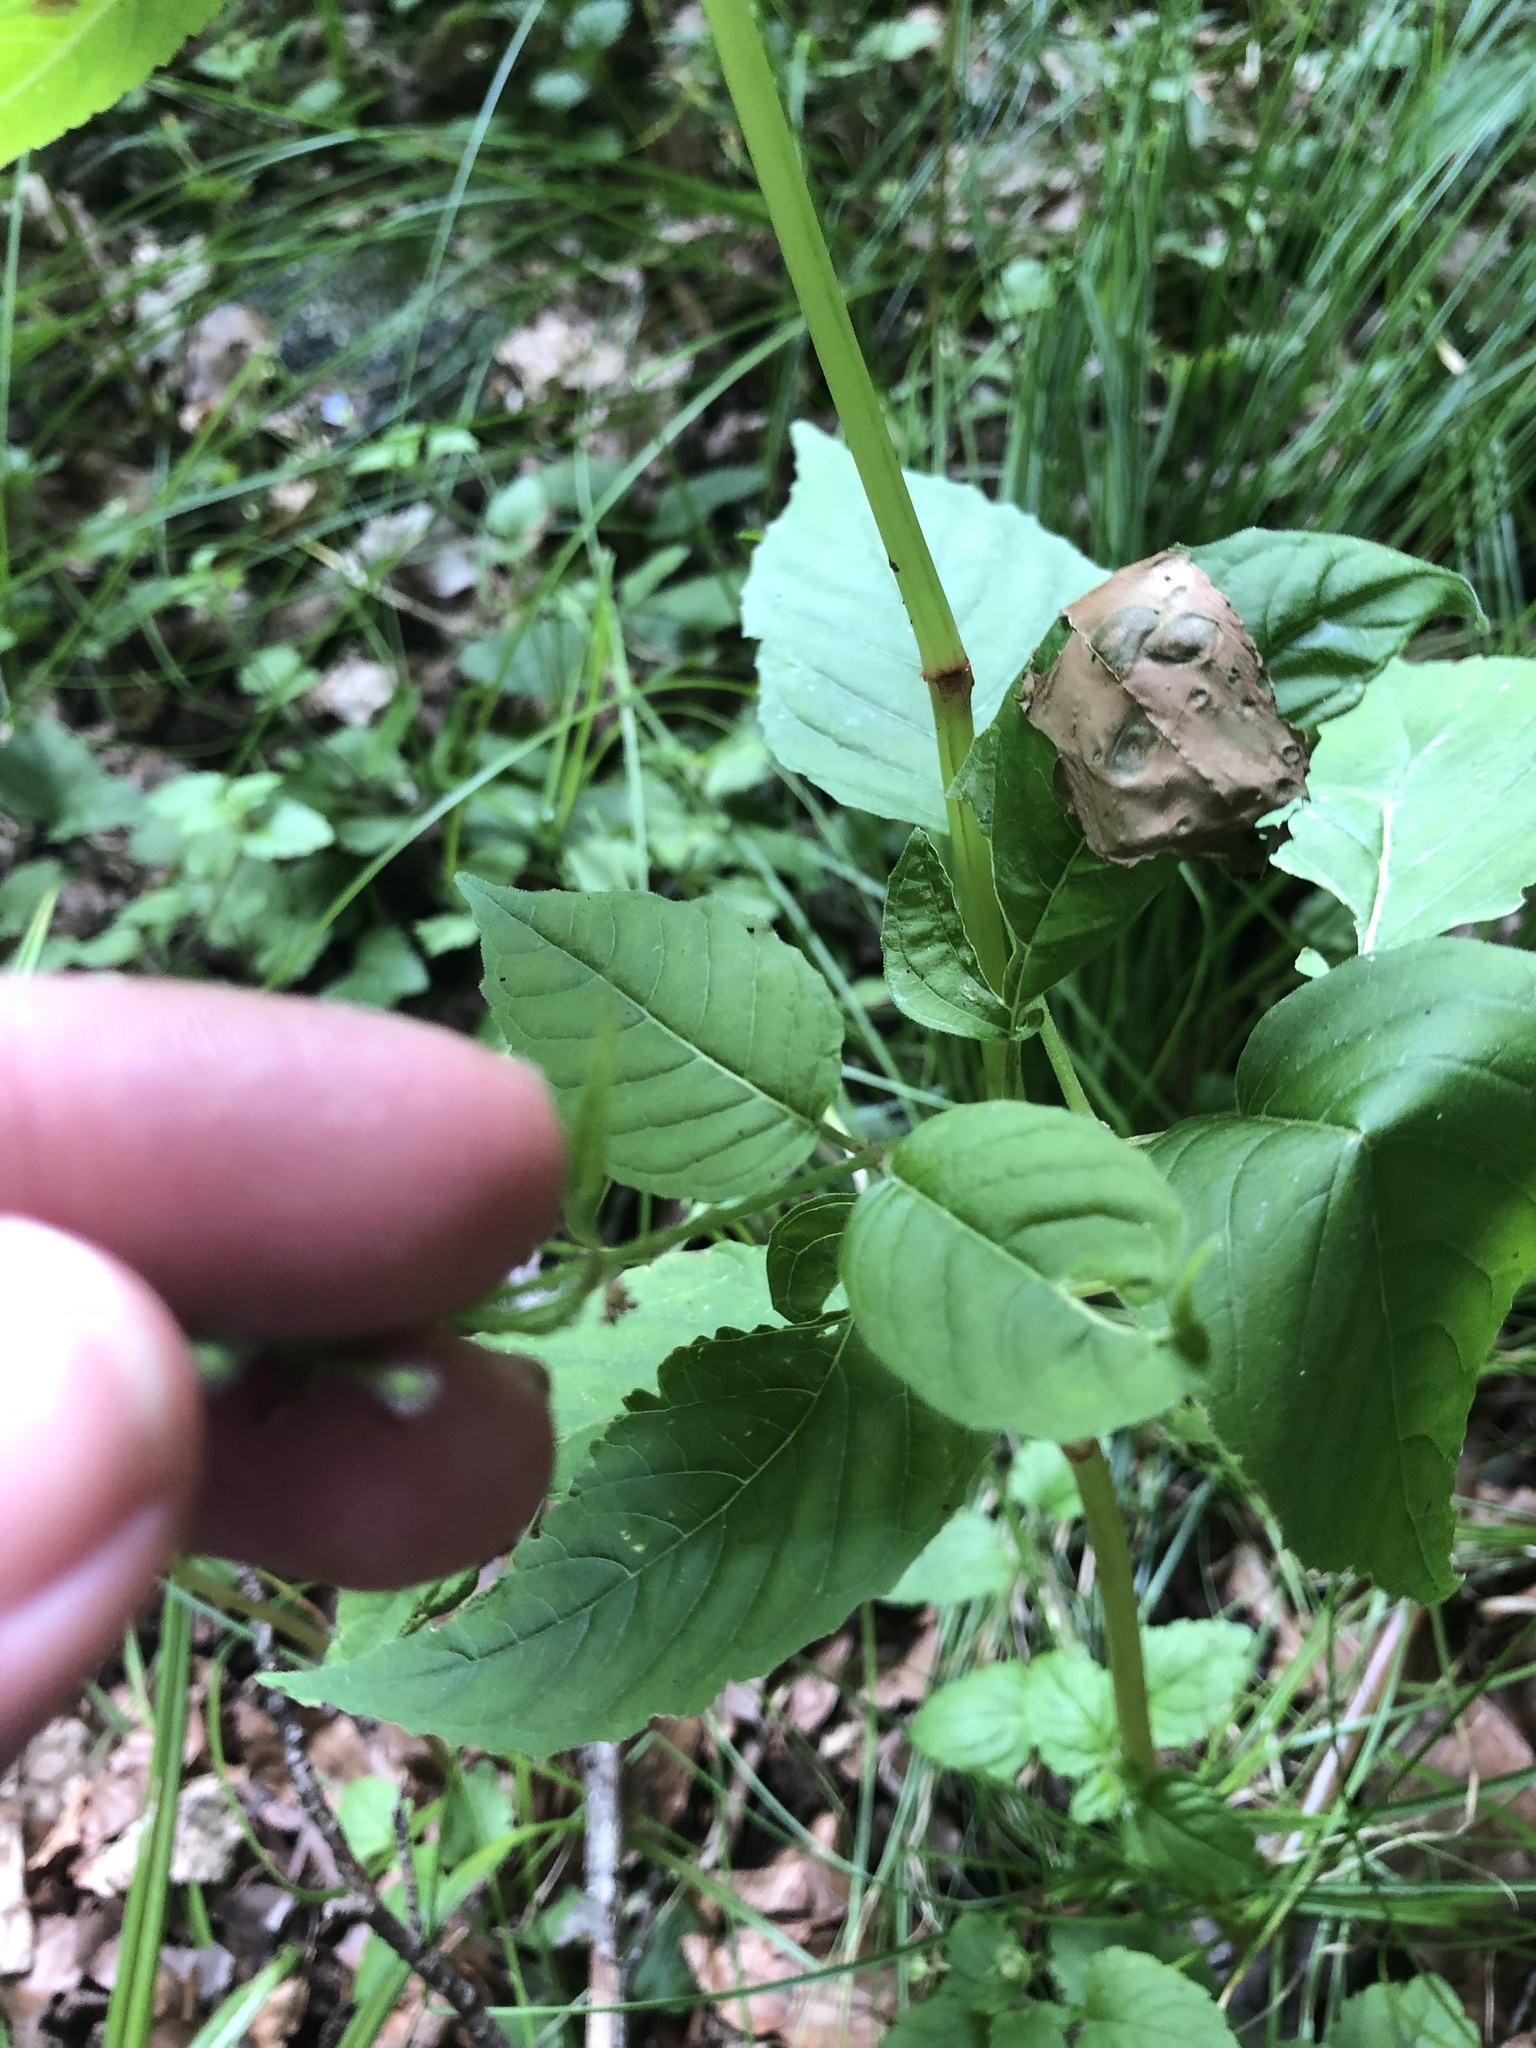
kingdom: Plantae
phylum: Tracheophyta
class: Magnoliopsida
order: Myrtales
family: Onagraceae
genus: Circaea
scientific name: Circaea lutetiana
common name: Enchanter's-nightshade
